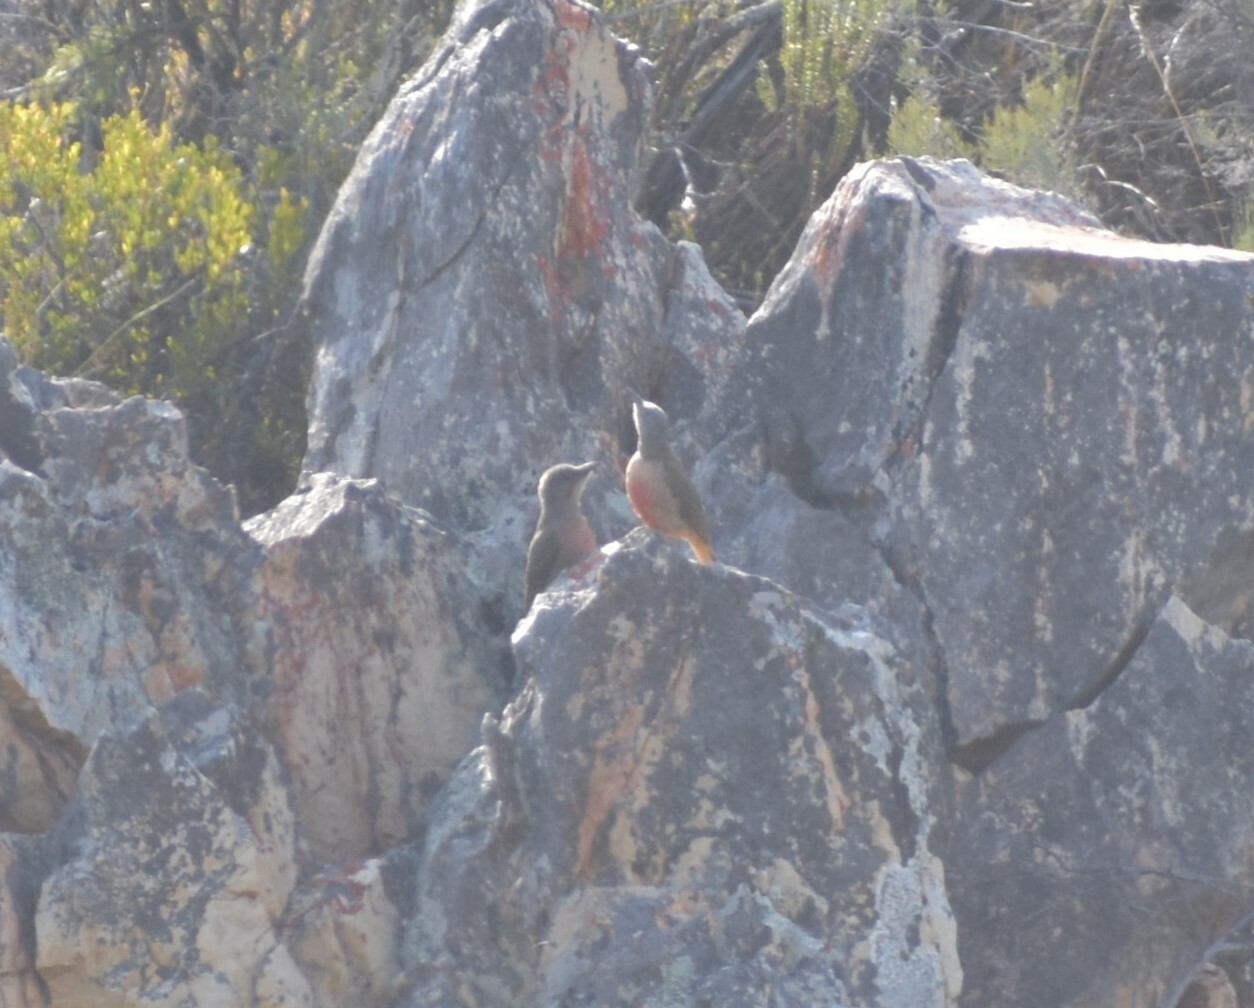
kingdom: Animalia
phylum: Chordata
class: Aves
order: Piciformes
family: Picidae
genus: Geocolaptes
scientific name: Geocolaptes olivaceus
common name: Ground woodpecker
